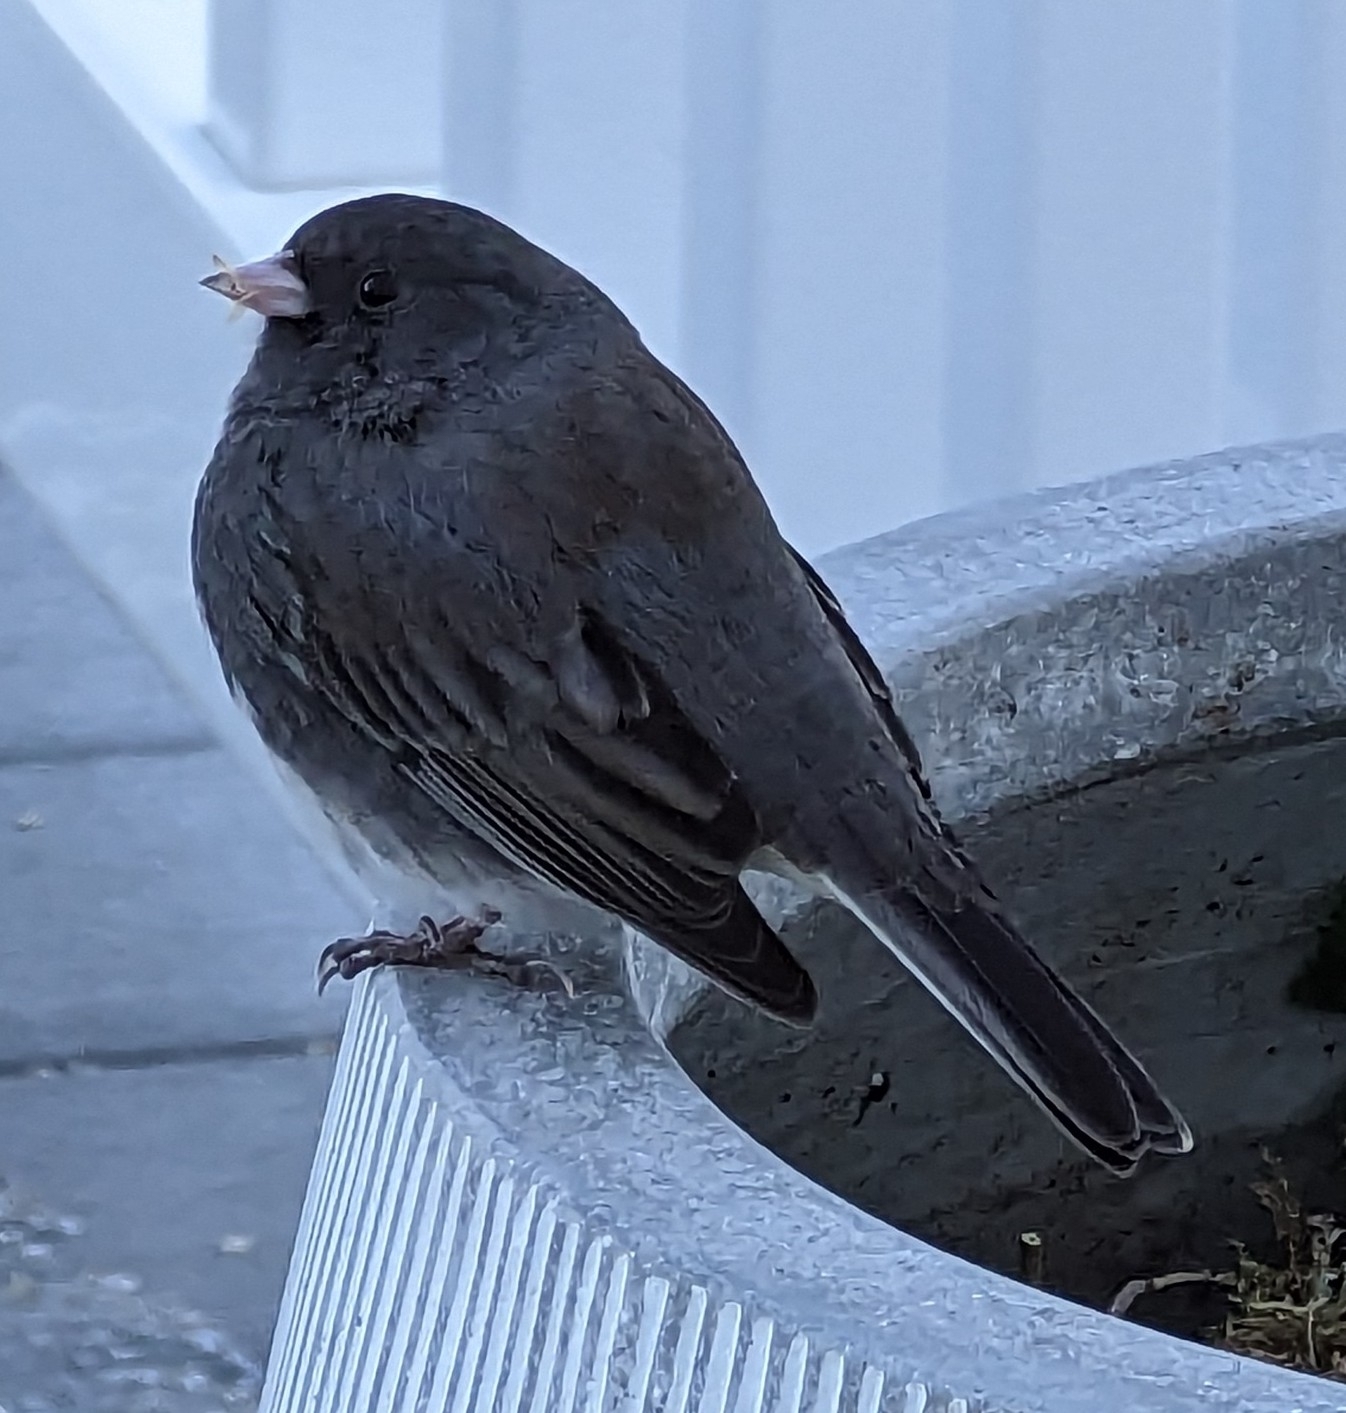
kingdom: Animalia
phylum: Chordata
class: Aves
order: Passeriformes
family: Passerellidae
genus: Junco
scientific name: Junco hyemalis
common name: Dark-eyed junco
